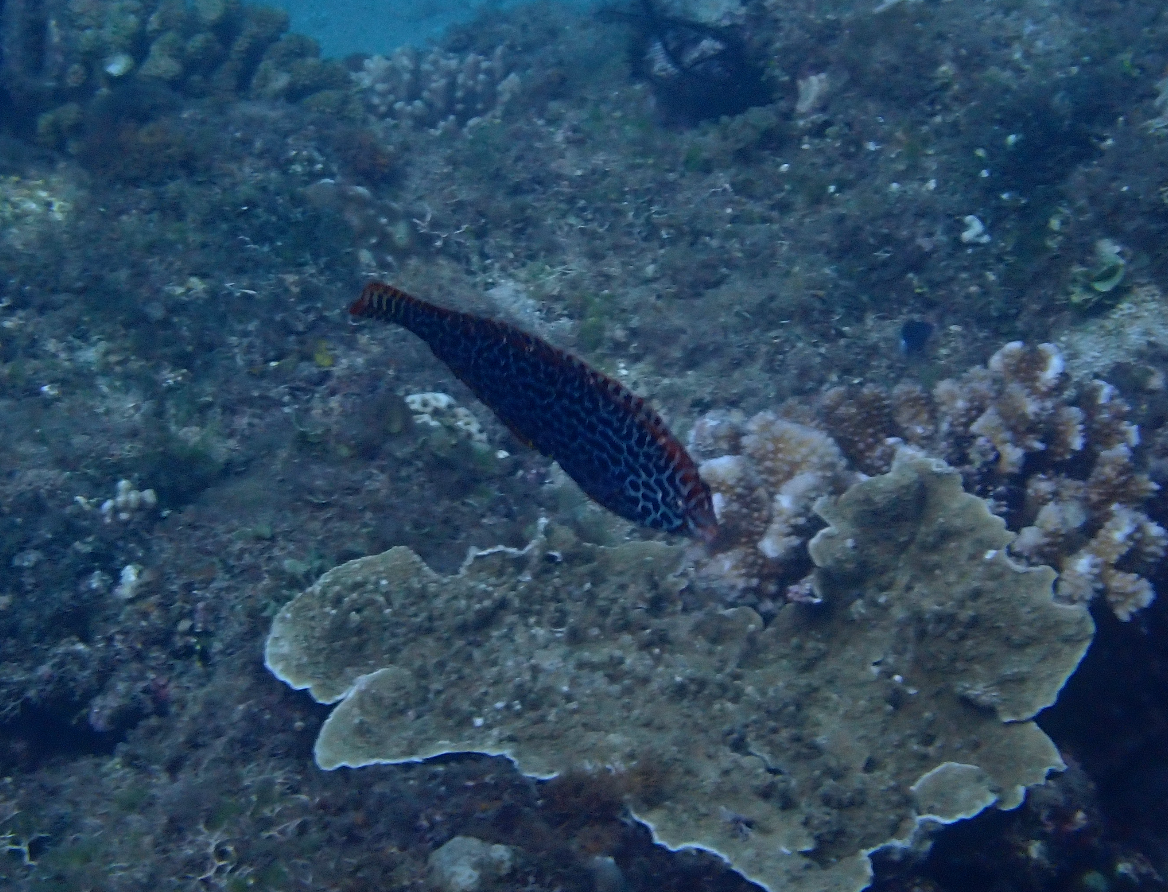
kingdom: Animalia
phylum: Chordata
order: Perciformes
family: Labridae
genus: Macropharyngodon
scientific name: Macropharyngodon meleagris
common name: Leopard wrasse
